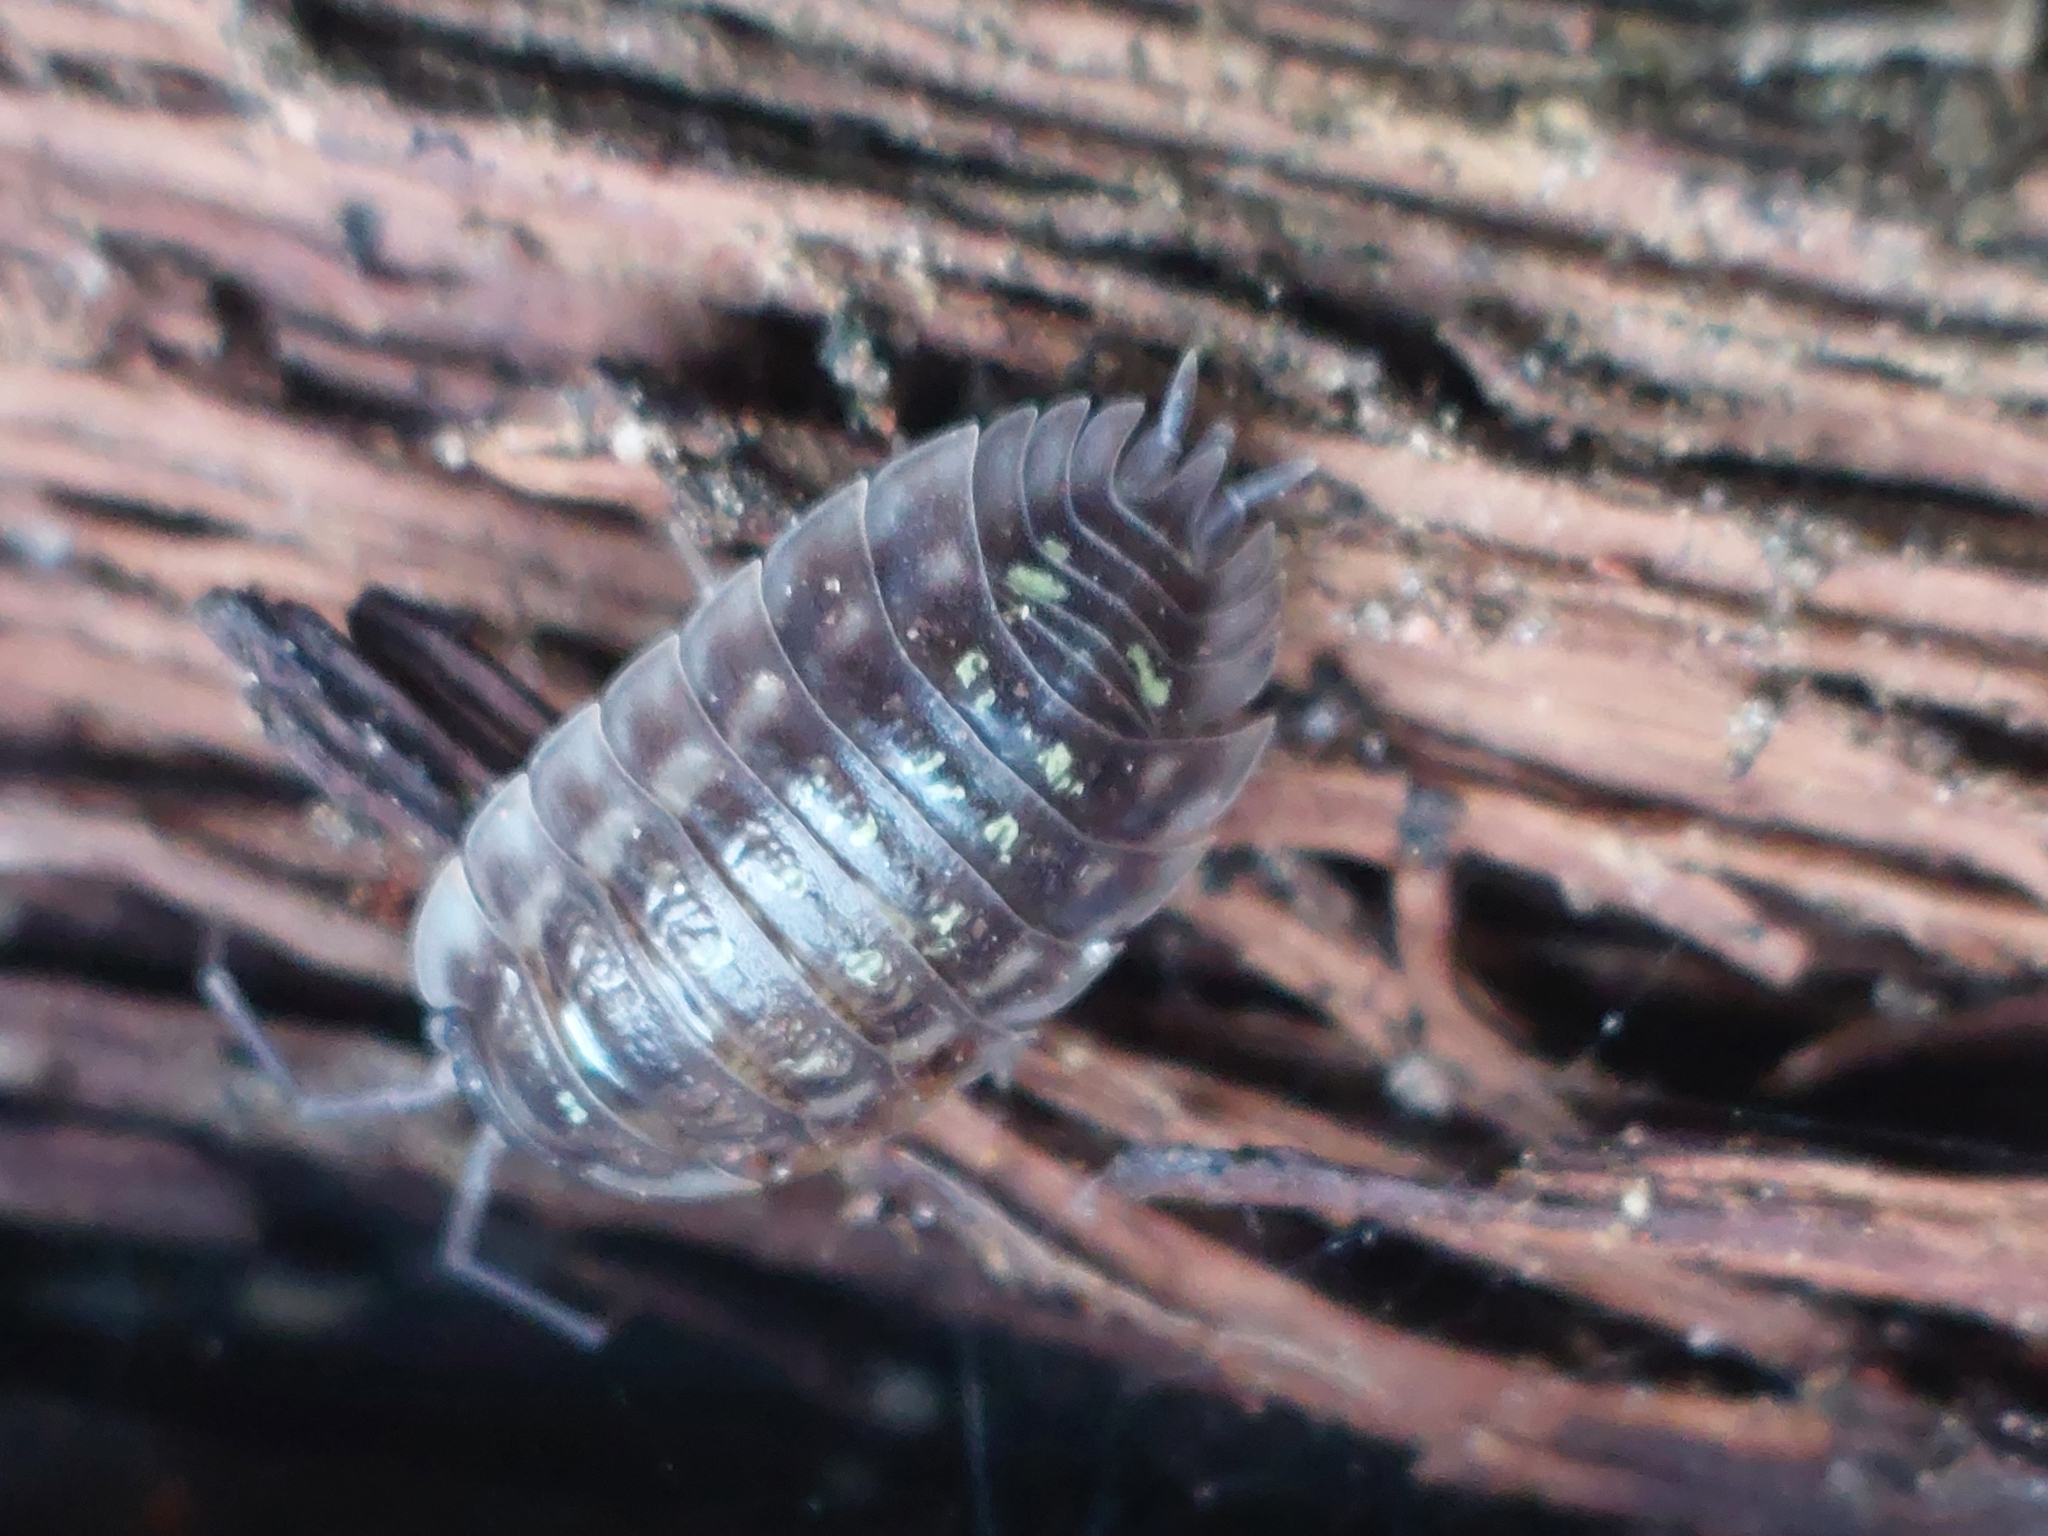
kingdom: Animalia
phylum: Arthropoda
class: Malacostraca
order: Isopoda
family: Oniscidae
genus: Oniscus
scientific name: Oniscus asellus
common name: Common shiny woodlouse
